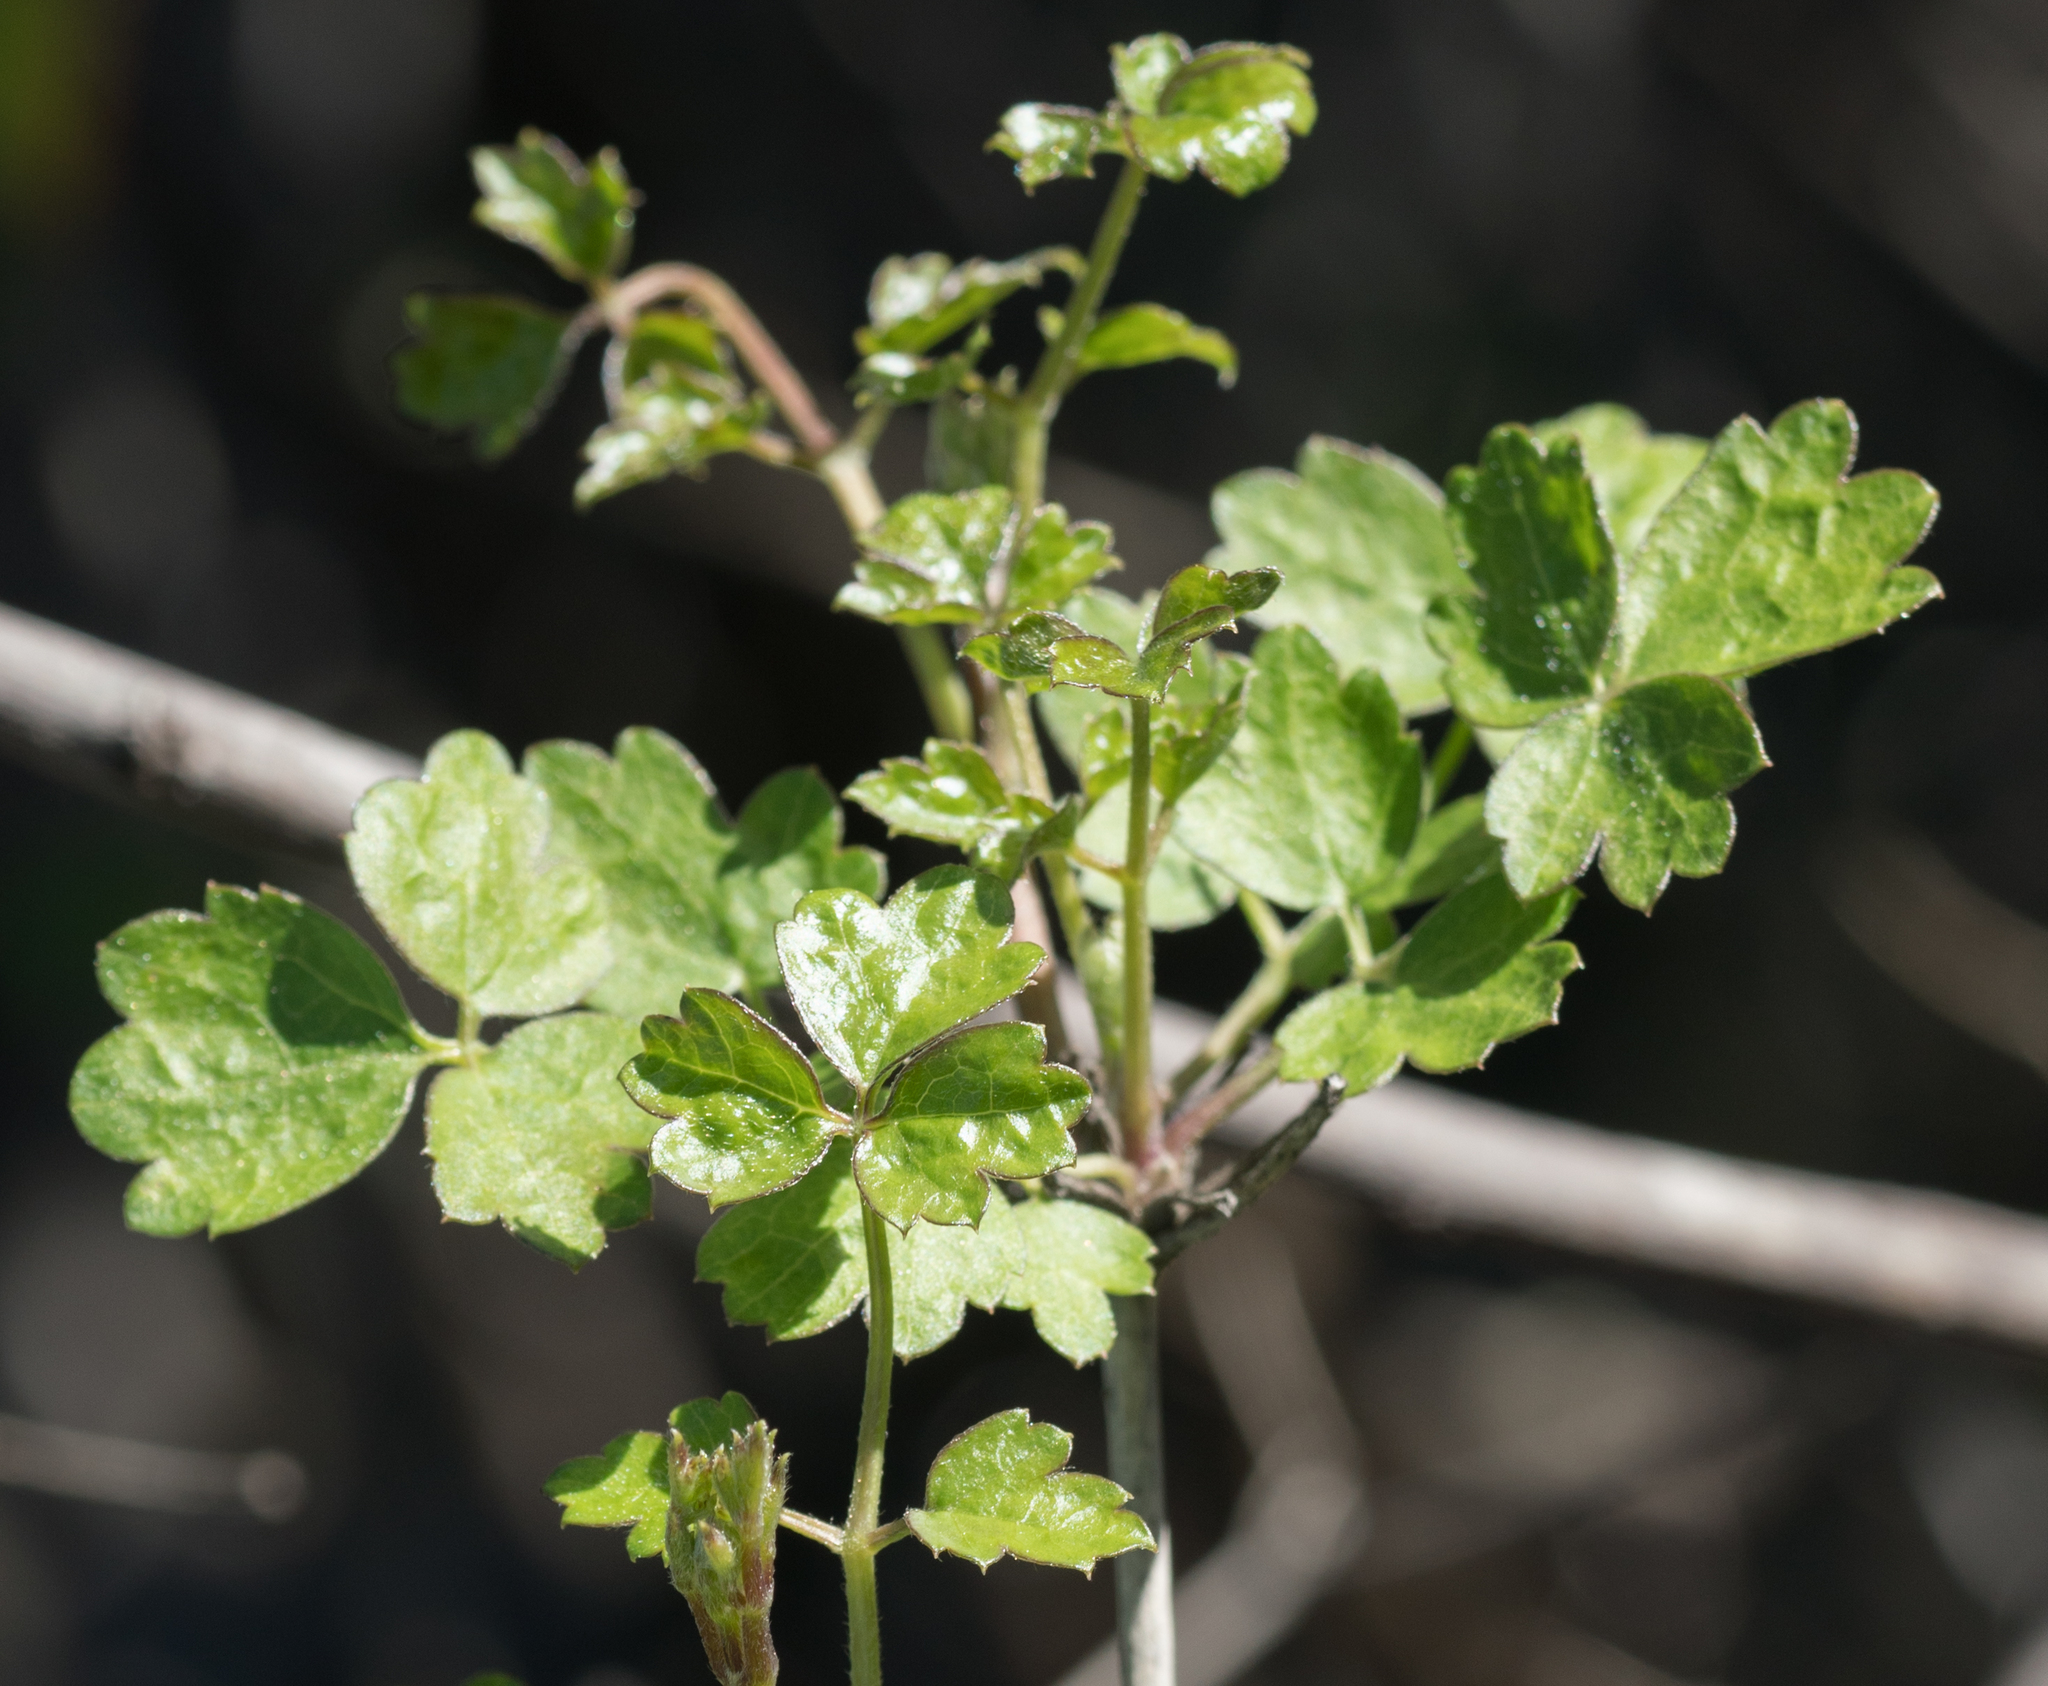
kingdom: Plantae
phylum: Tracheophyta
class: Magnoliopsida
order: Sapindales
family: Anacardiaceae
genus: Rhus
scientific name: Rhus aromatica
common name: Aromatic sumac
